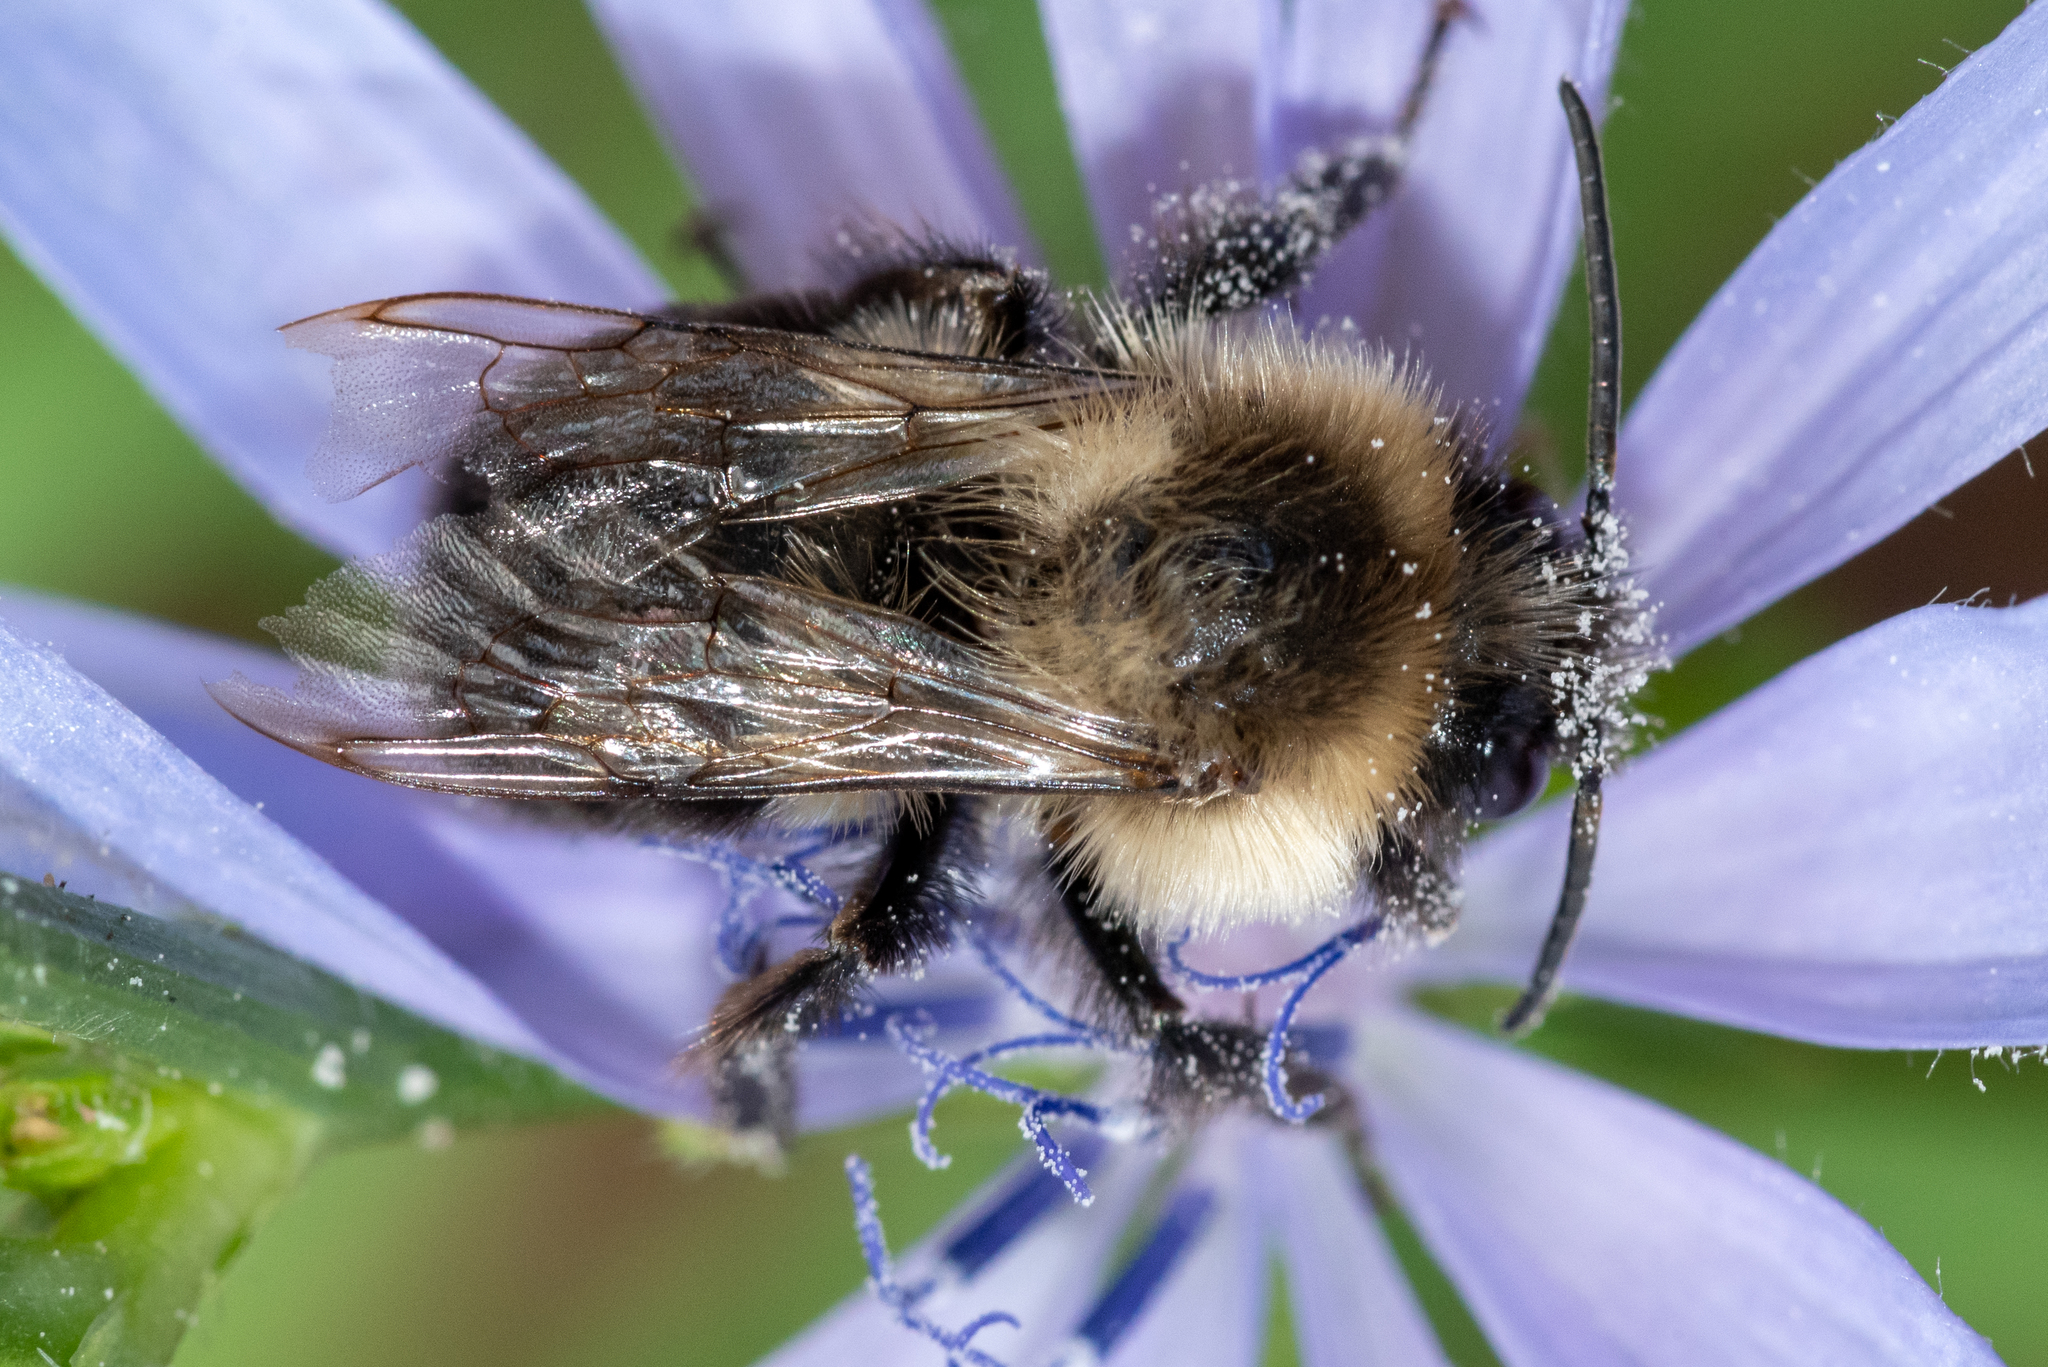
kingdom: Animalia
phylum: Arthropoda
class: Insecta
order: Hymenoptera
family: Apidae
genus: Bombus
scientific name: Bombus impatiens
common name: Common eastern bumble bee
